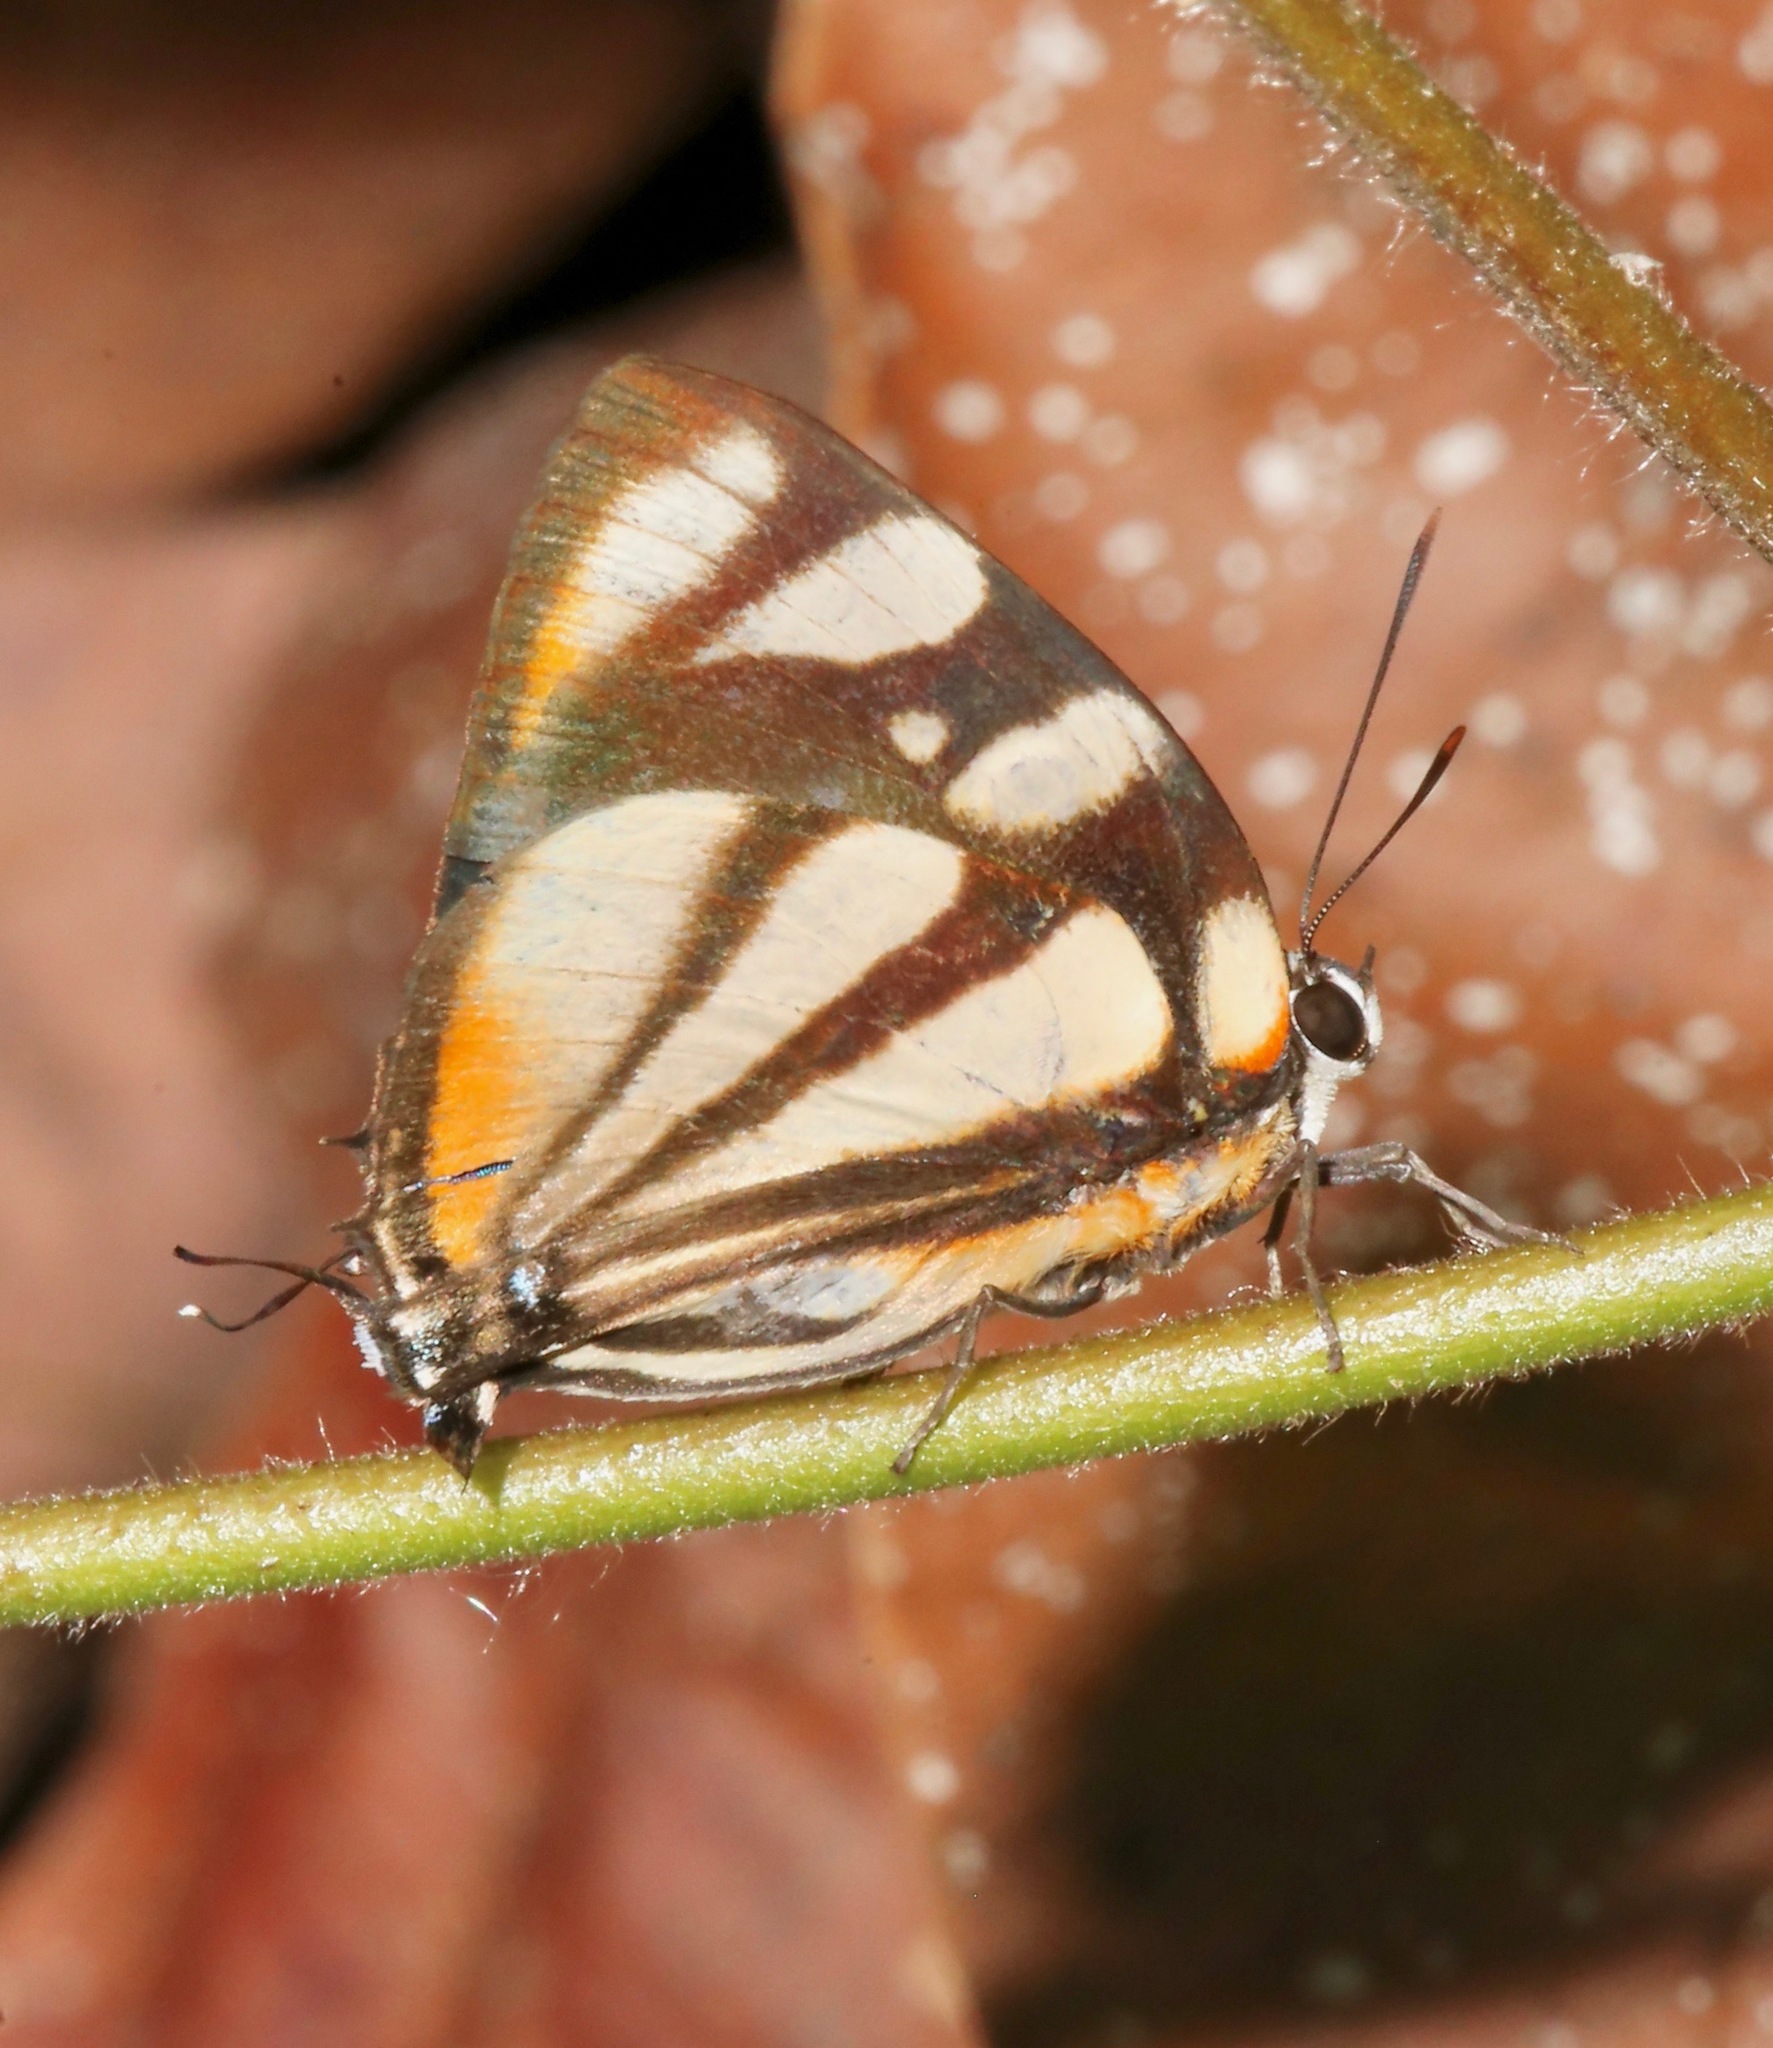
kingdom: Animalia
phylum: Arthropoda
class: Insecta
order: Lepidoptera
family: Lycaenidae
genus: Cycnus
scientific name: Cycnus phaleros
